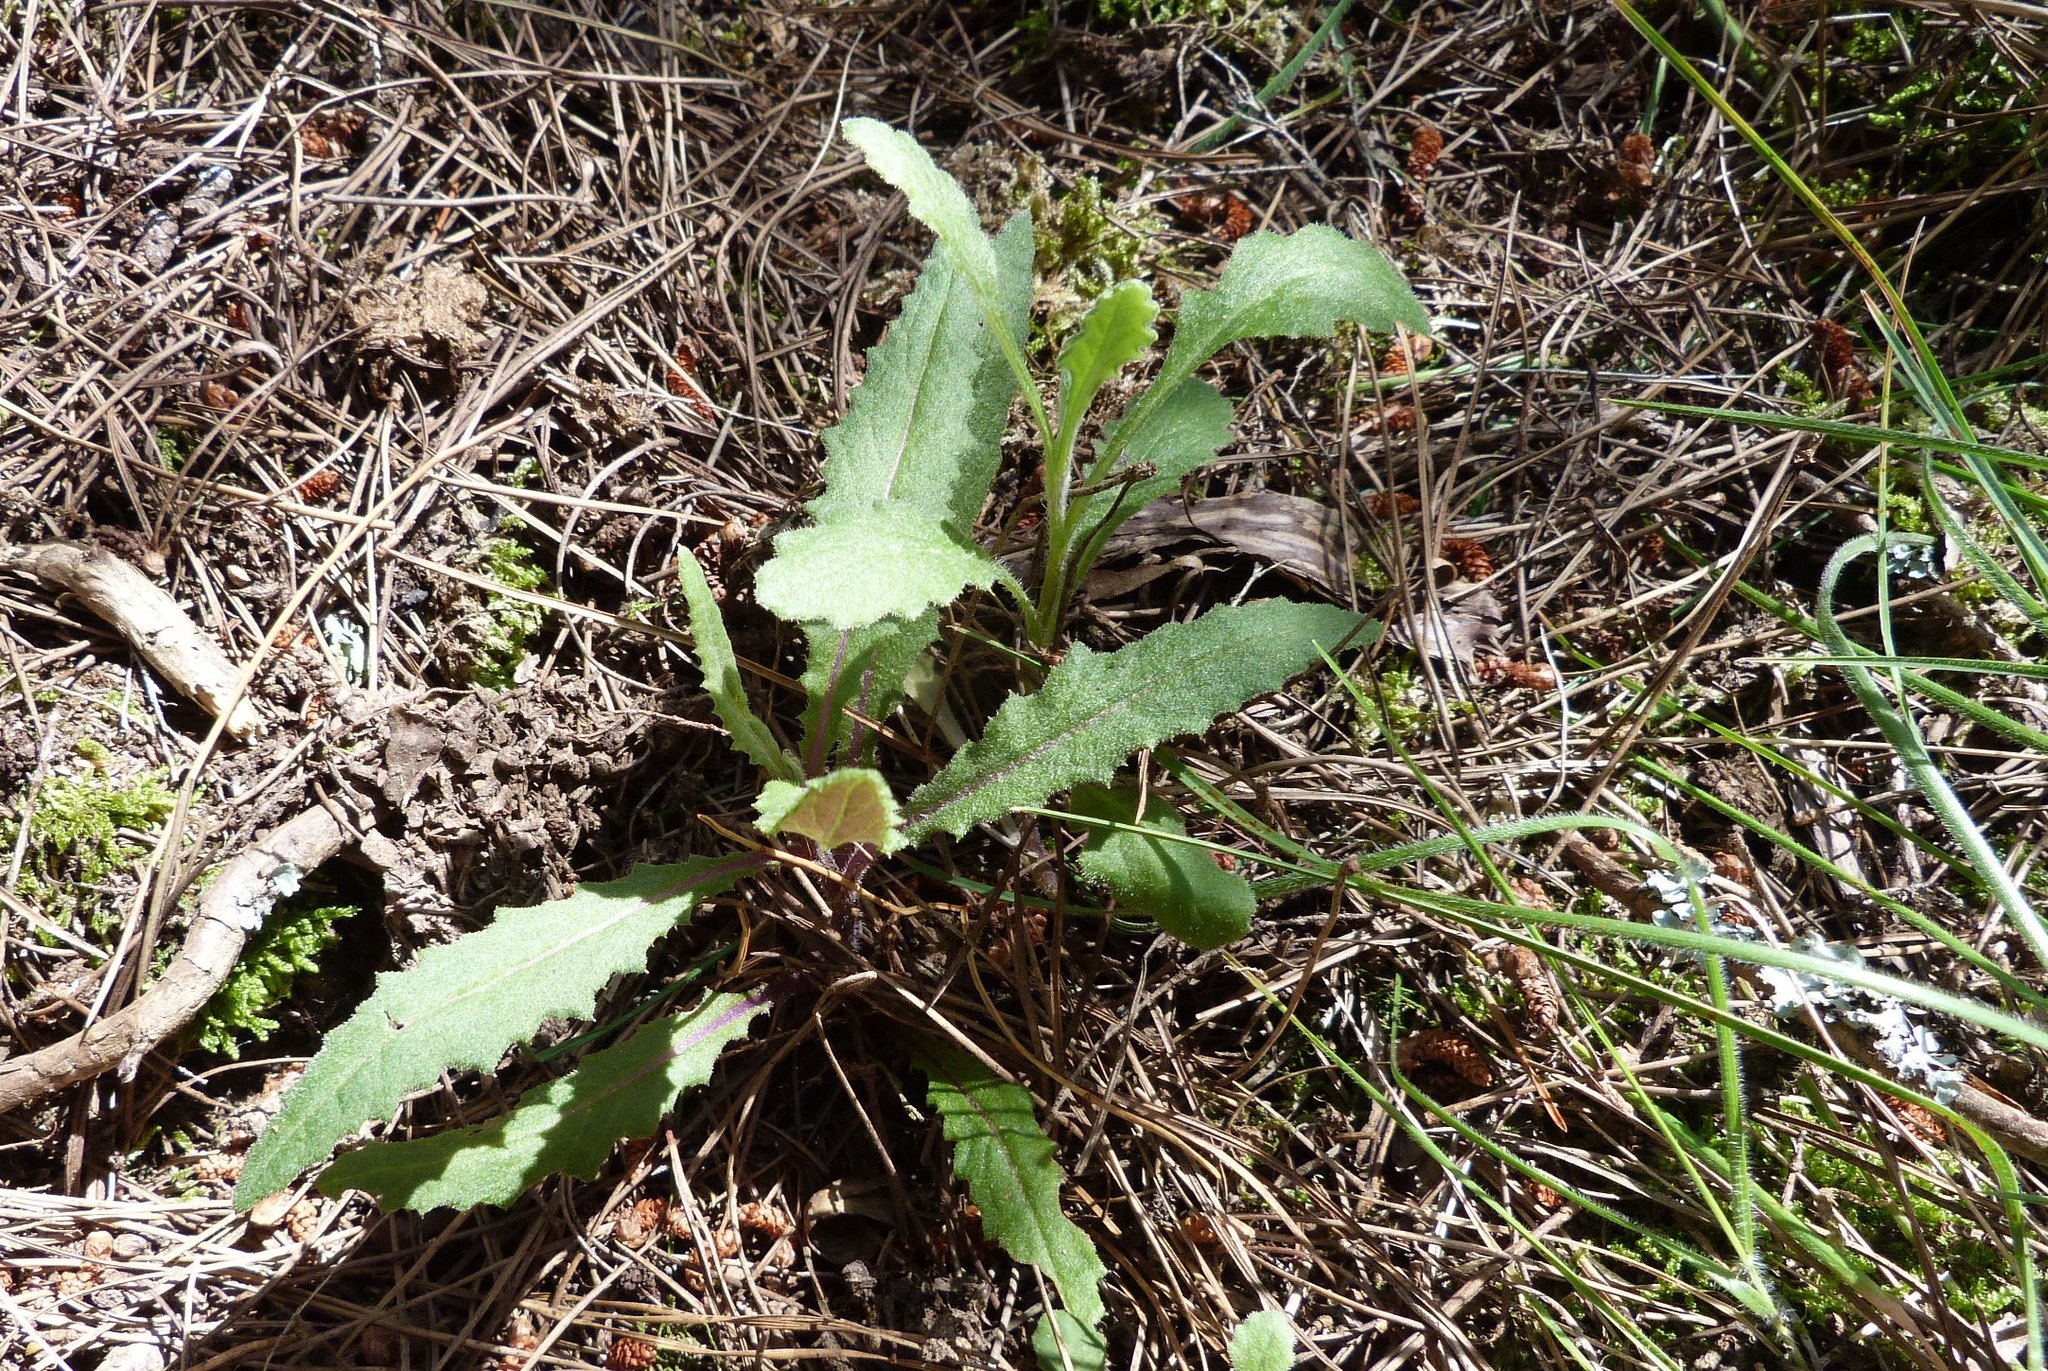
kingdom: Plantae
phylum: Tracheophyta
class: Magnoliopsida
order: Asterales
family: Asteraceae
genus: Senecio
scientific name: Senecio minimus
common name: Toothed fireweed
